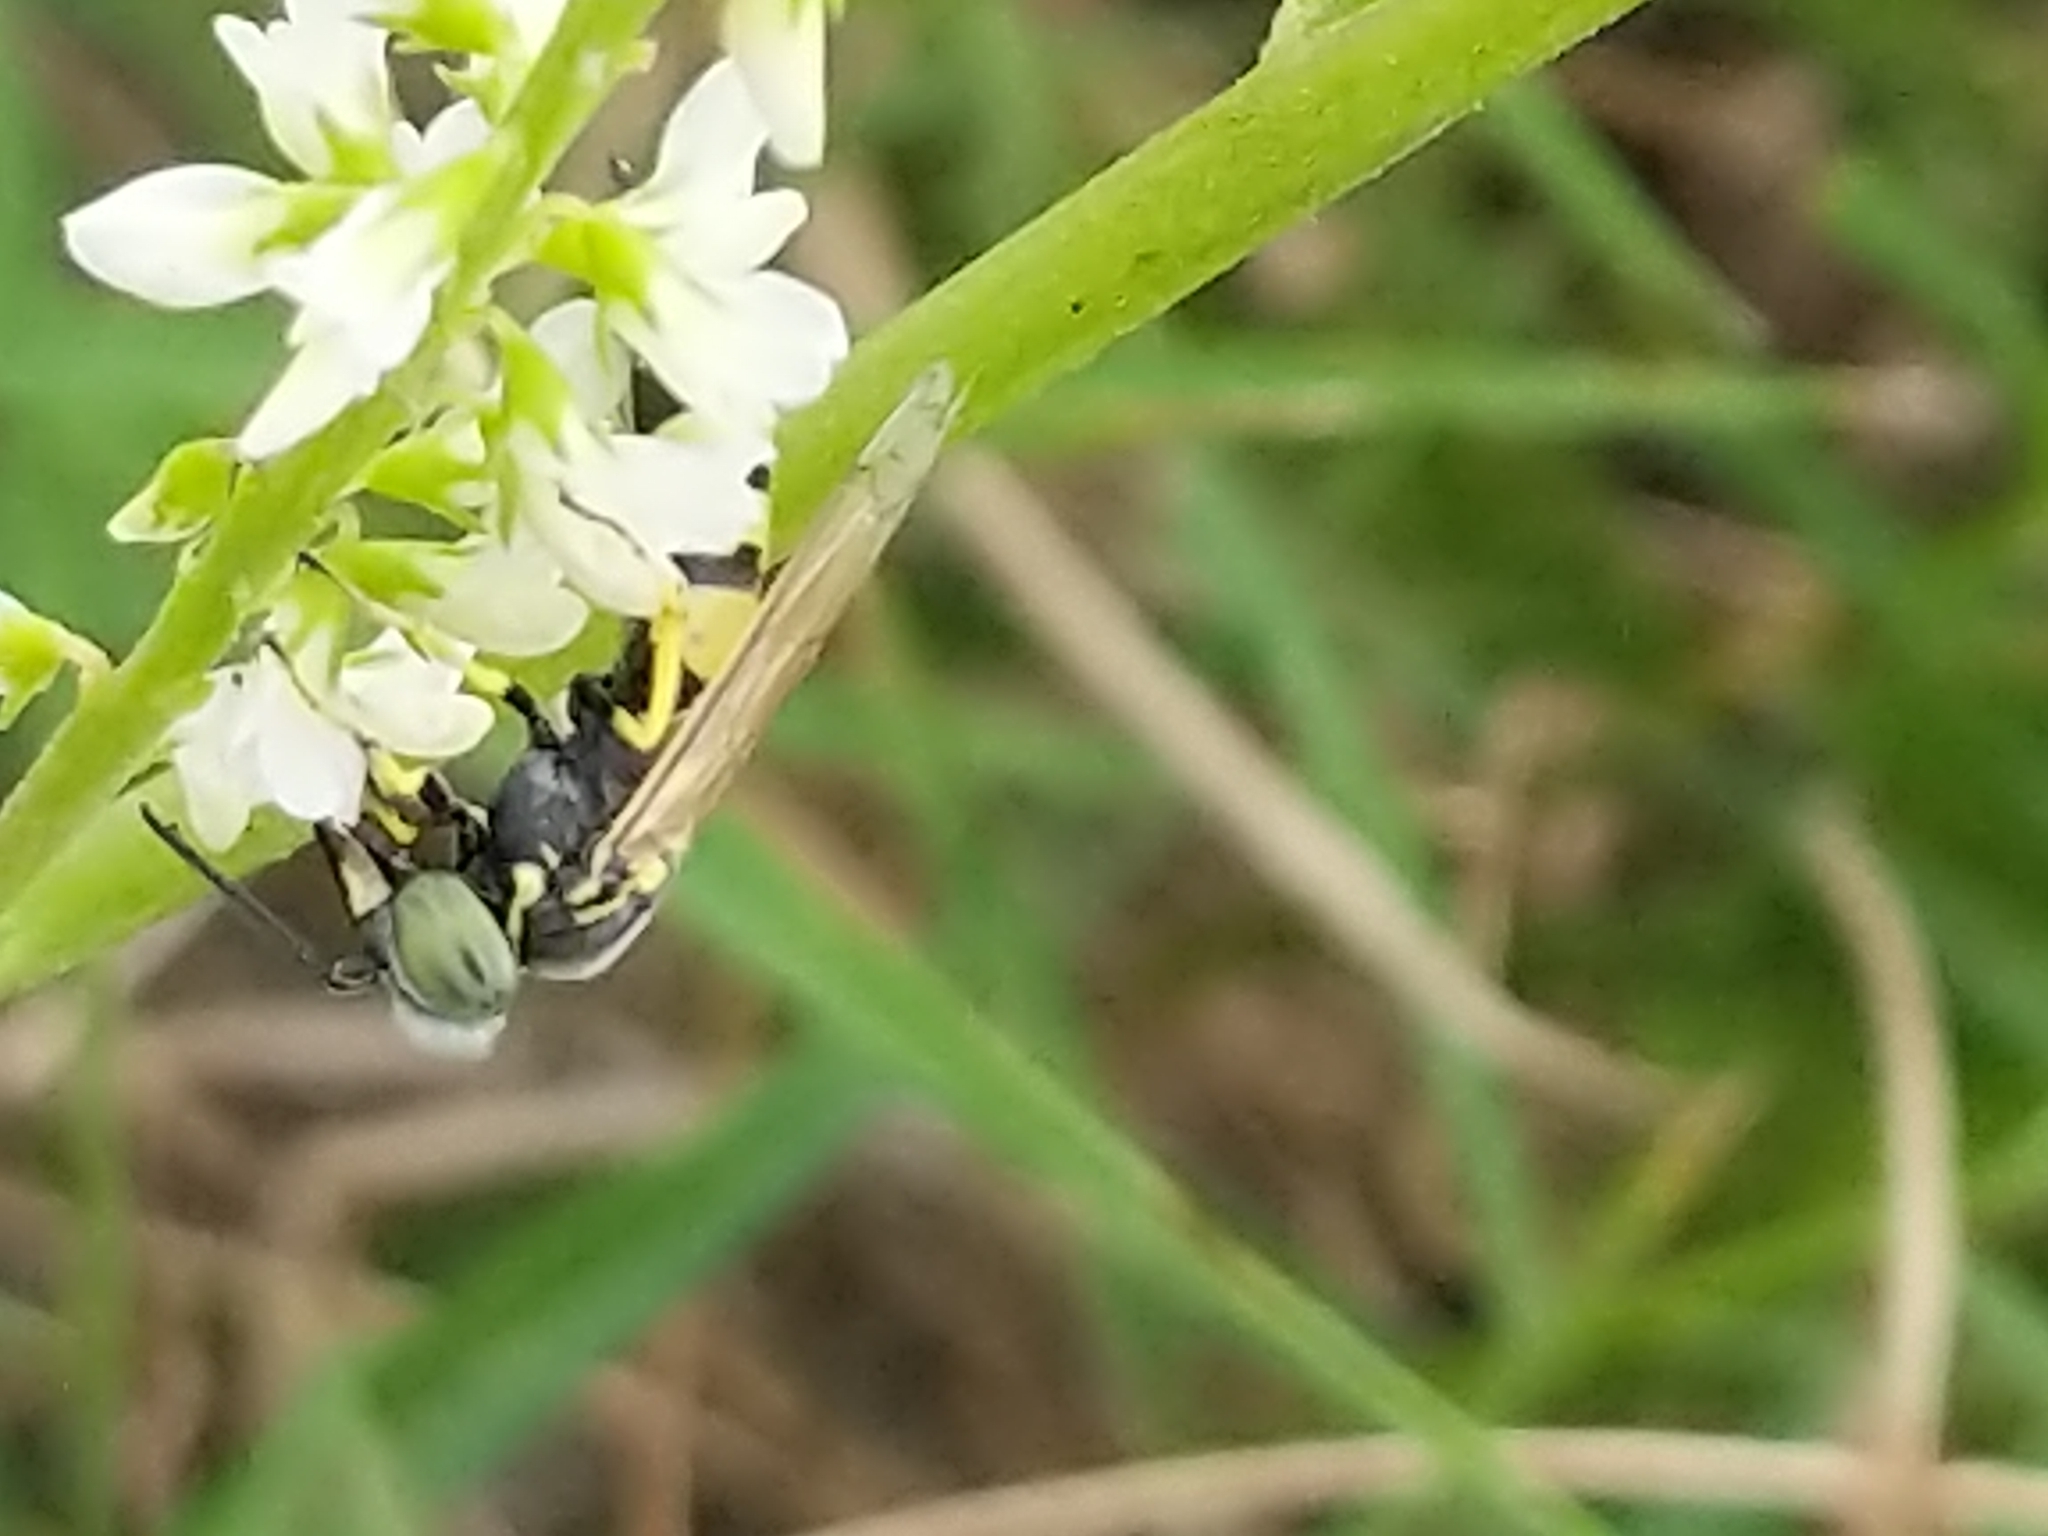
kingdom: Animalia
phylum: Arthropoda
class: Insecta
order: Hymenoptera
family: Crabronidae
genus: Microbembex
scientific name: Microbembex monodonta
